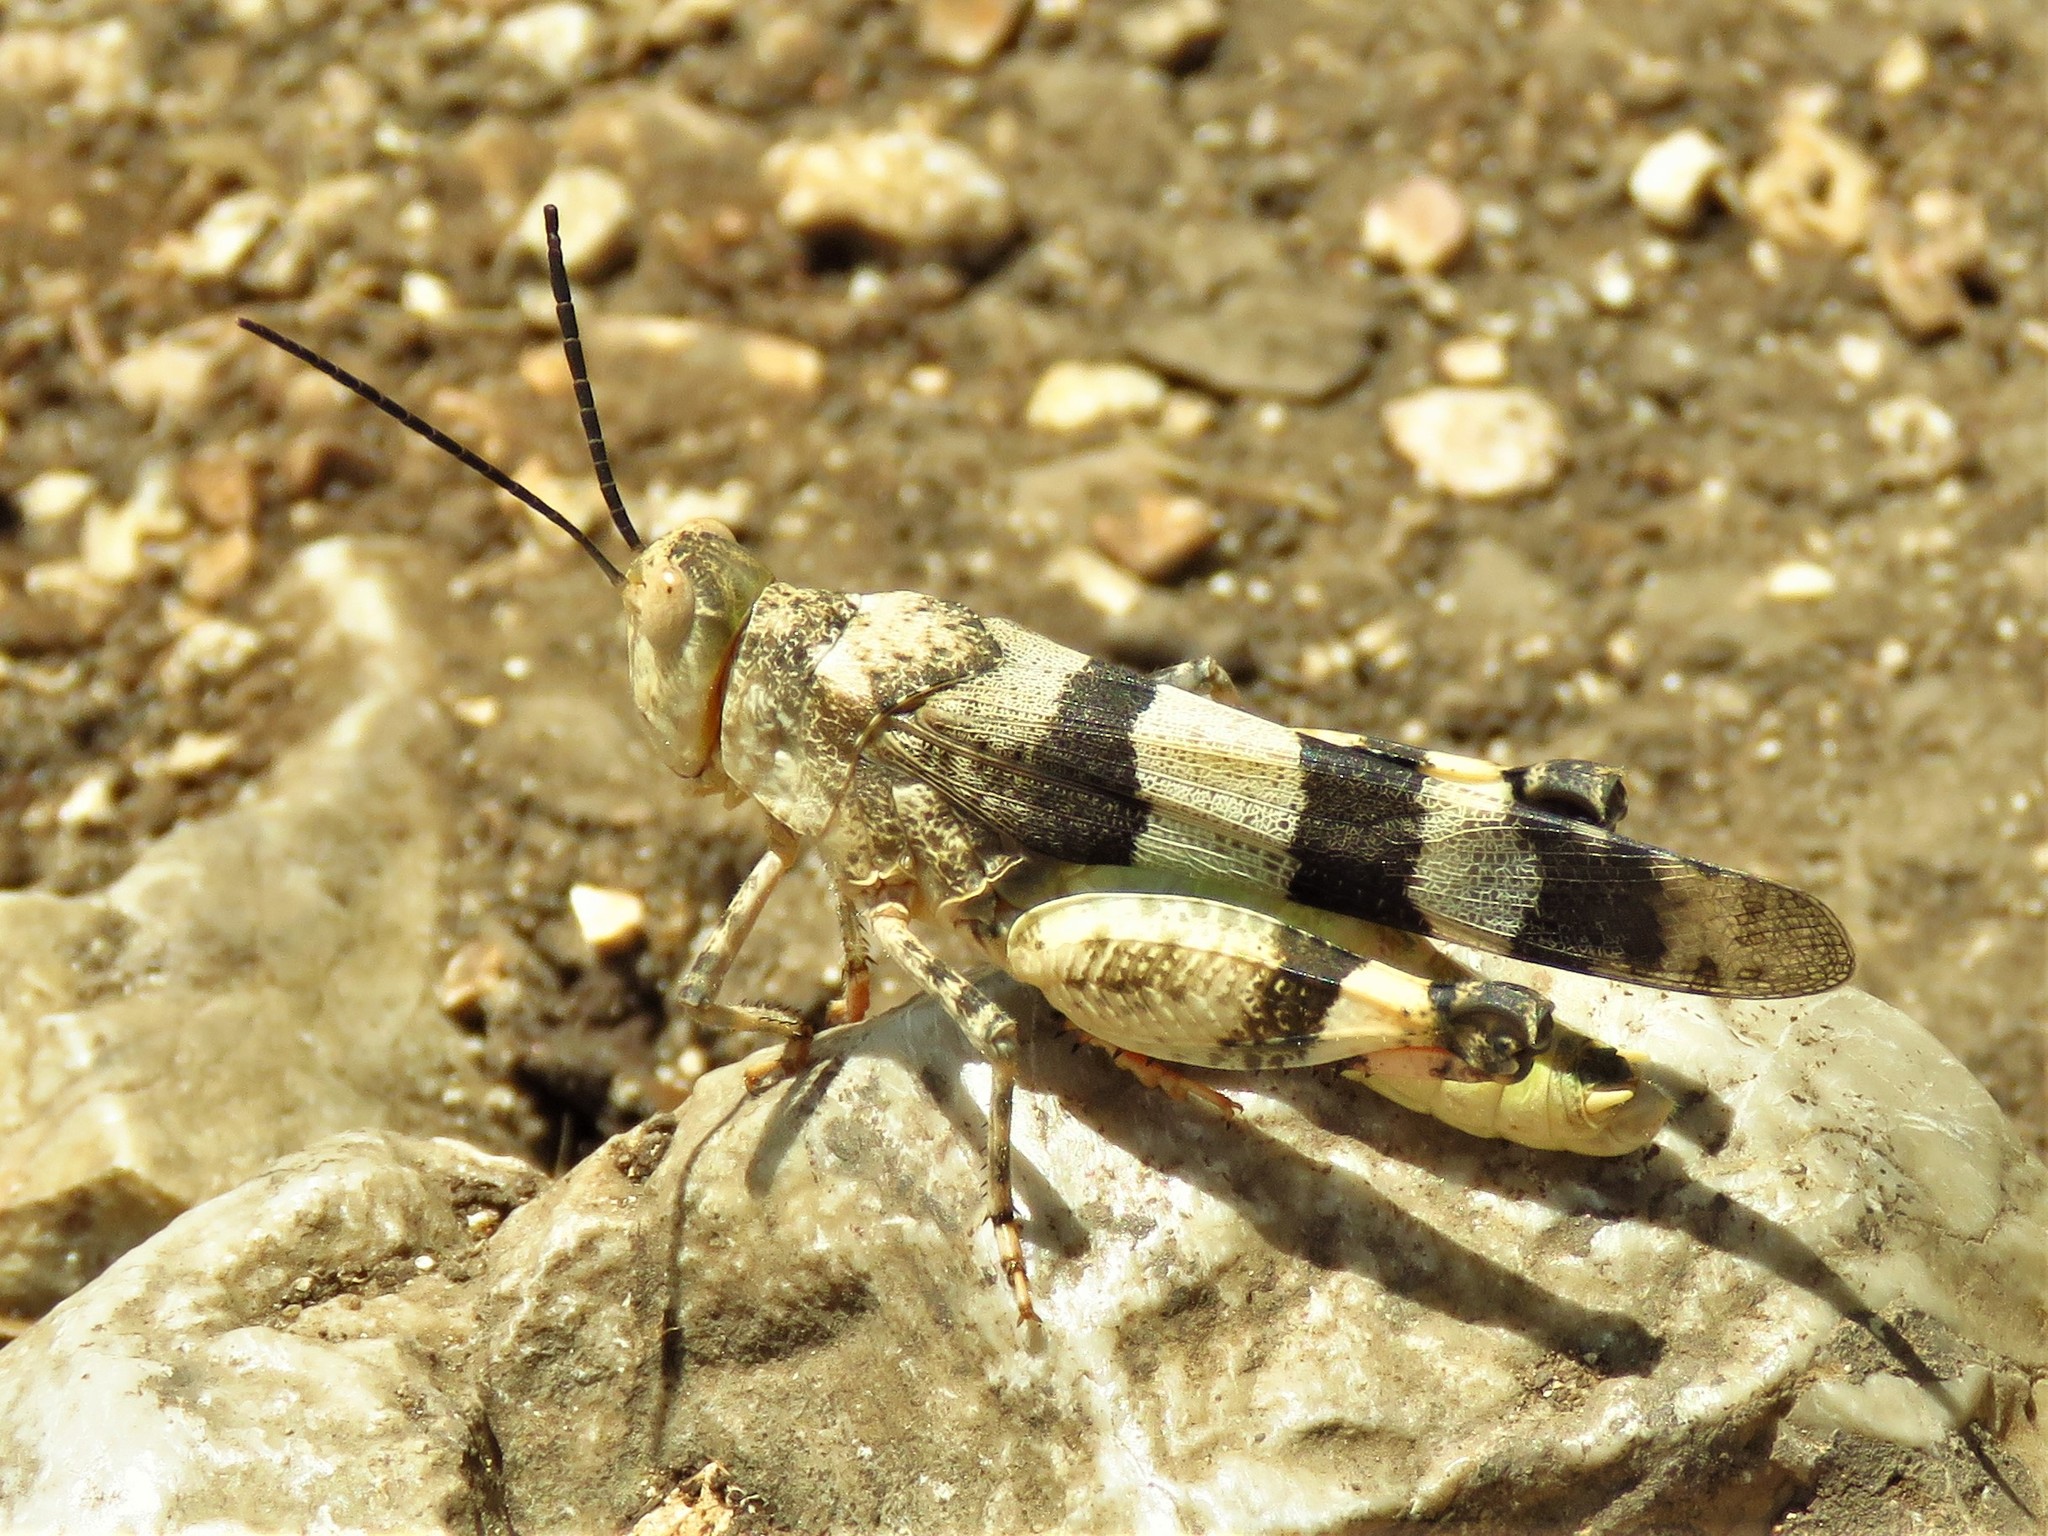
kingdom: Animalia
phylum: Arthropoda
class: Insecta
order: Orthoptera
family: Acrididae
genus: Hadrotettix
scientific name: Hadrotettix trifasciatus
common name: Threebanded grasshopper
